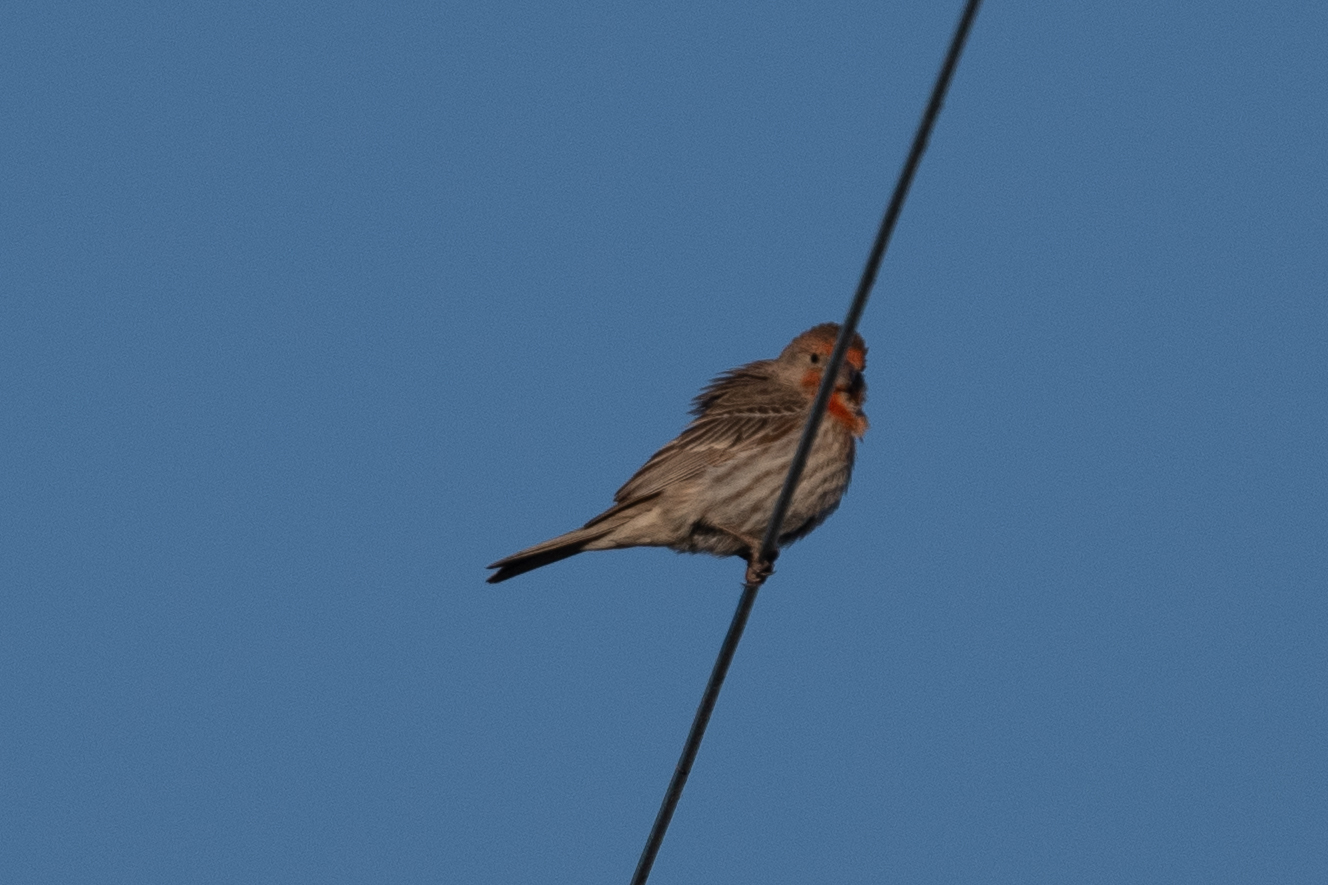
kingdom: Animalia
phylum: Chordata
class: Aves
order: Passeriformes
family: Fringillidae
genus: Haemorhous
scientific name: Haemorhous mexicanus
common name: House finch
